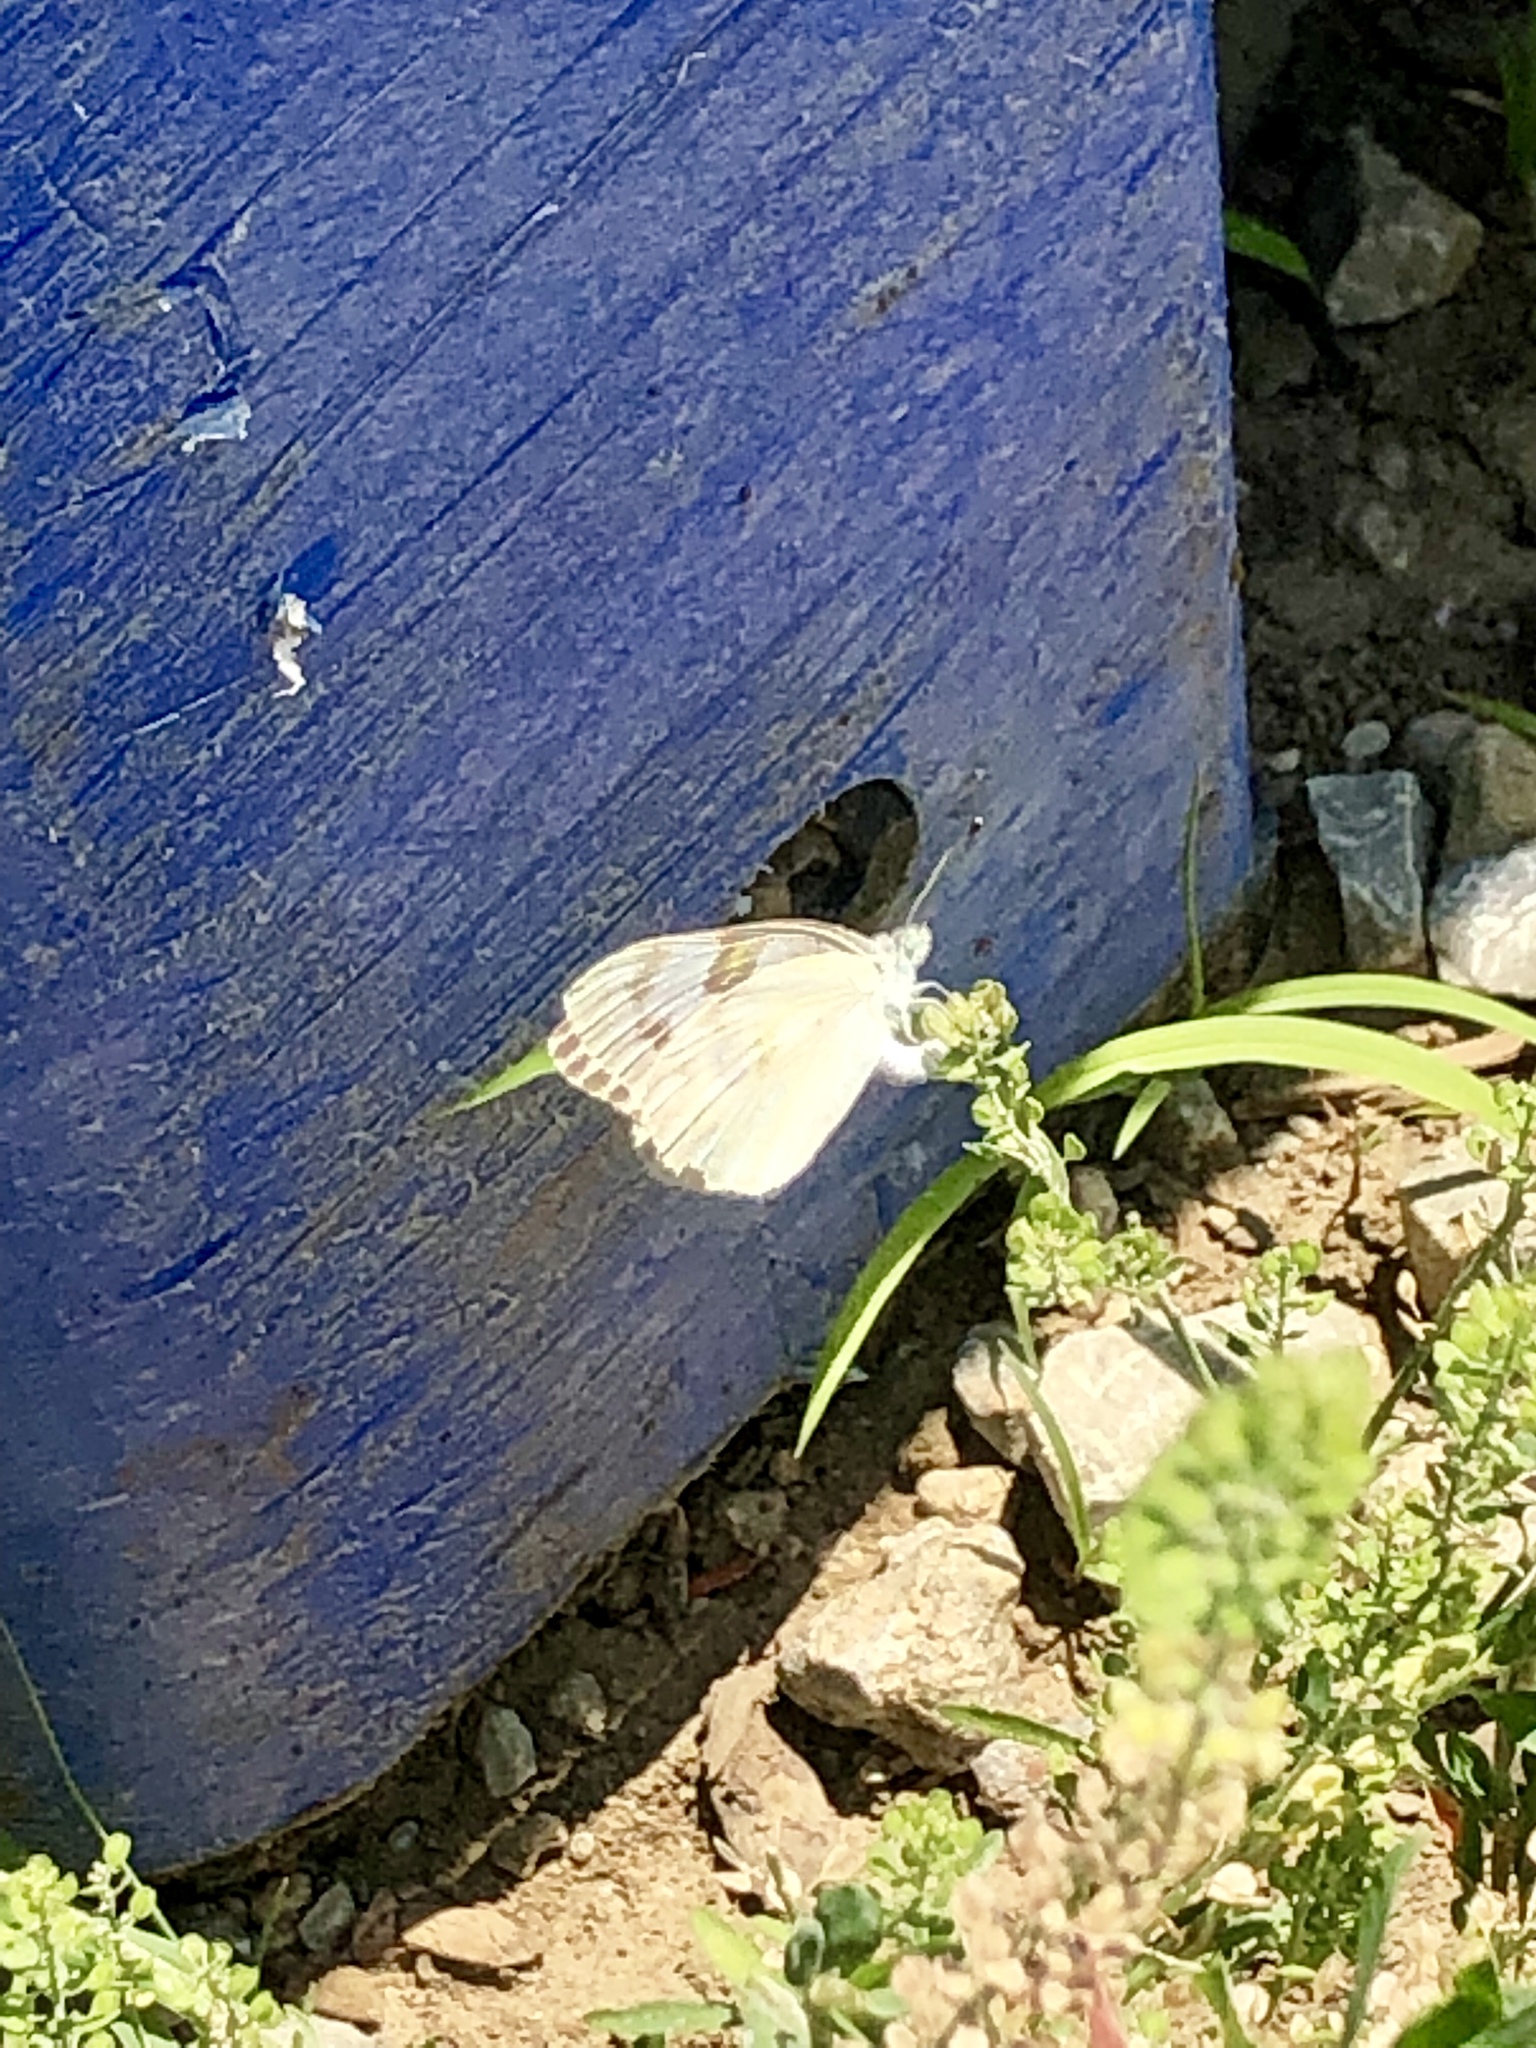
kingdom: Animalia
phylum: Arthropoda
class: Insecta
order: Lepidoptera
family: Pieridae
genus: Pontia
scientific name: Pontia protodice
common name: Checkered white
